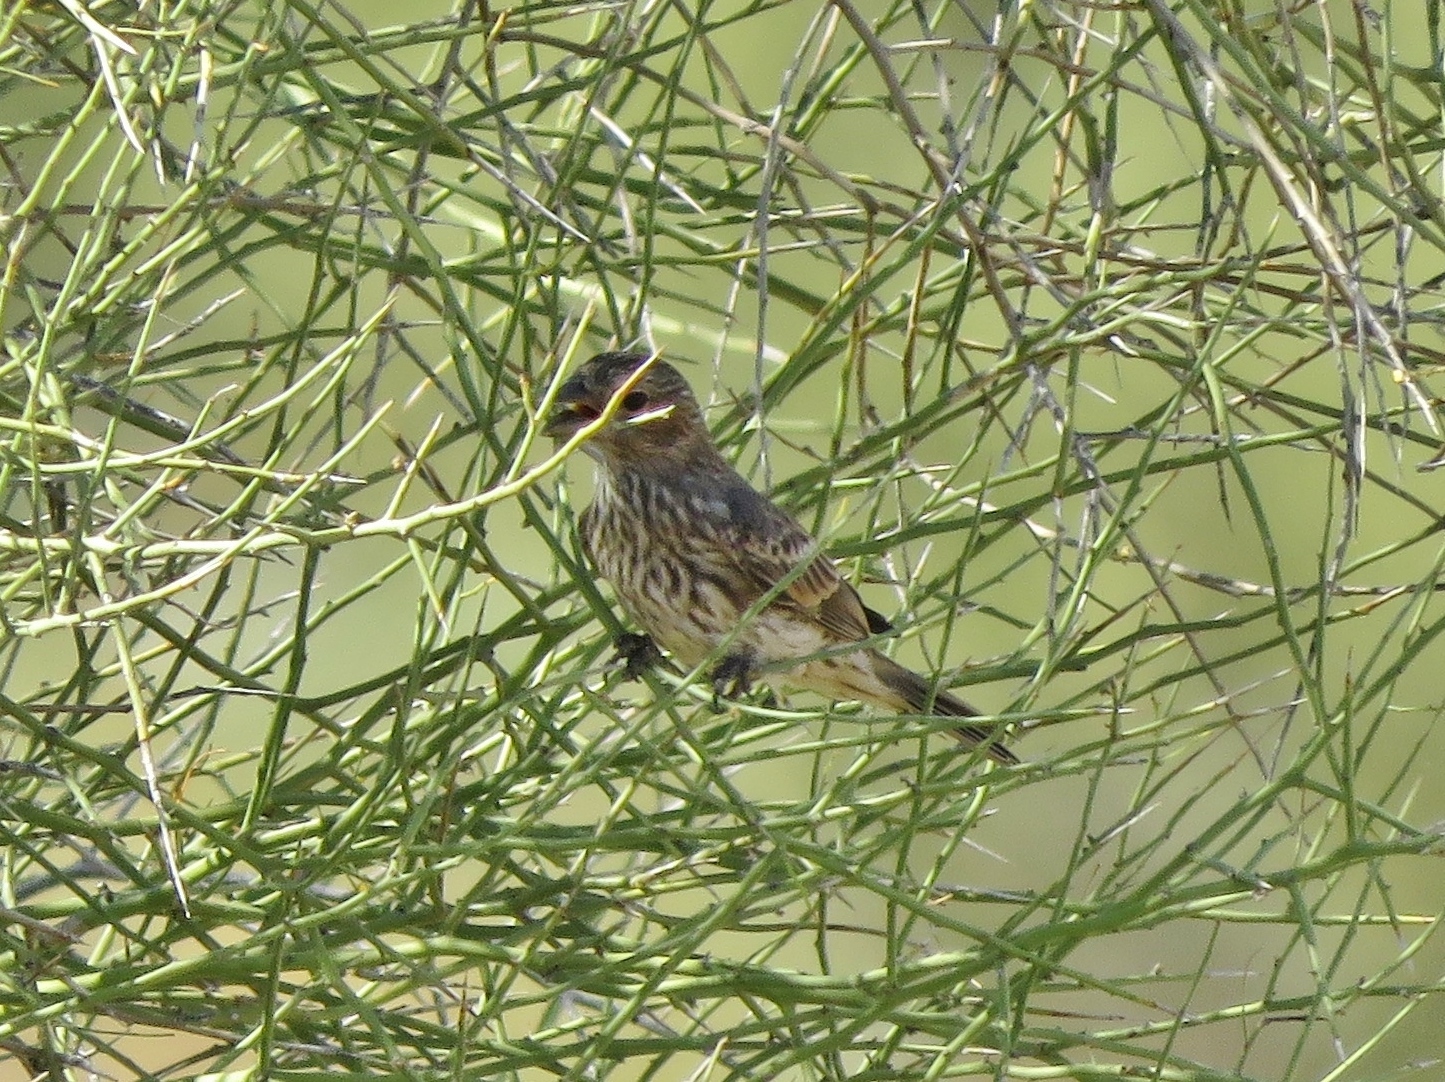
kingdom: Animalia
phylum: Chordata
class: Aves
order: Passeriformes
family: Fringillidae
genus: Haemorhous
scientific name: Haemorhous mexicanus
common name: House finch
